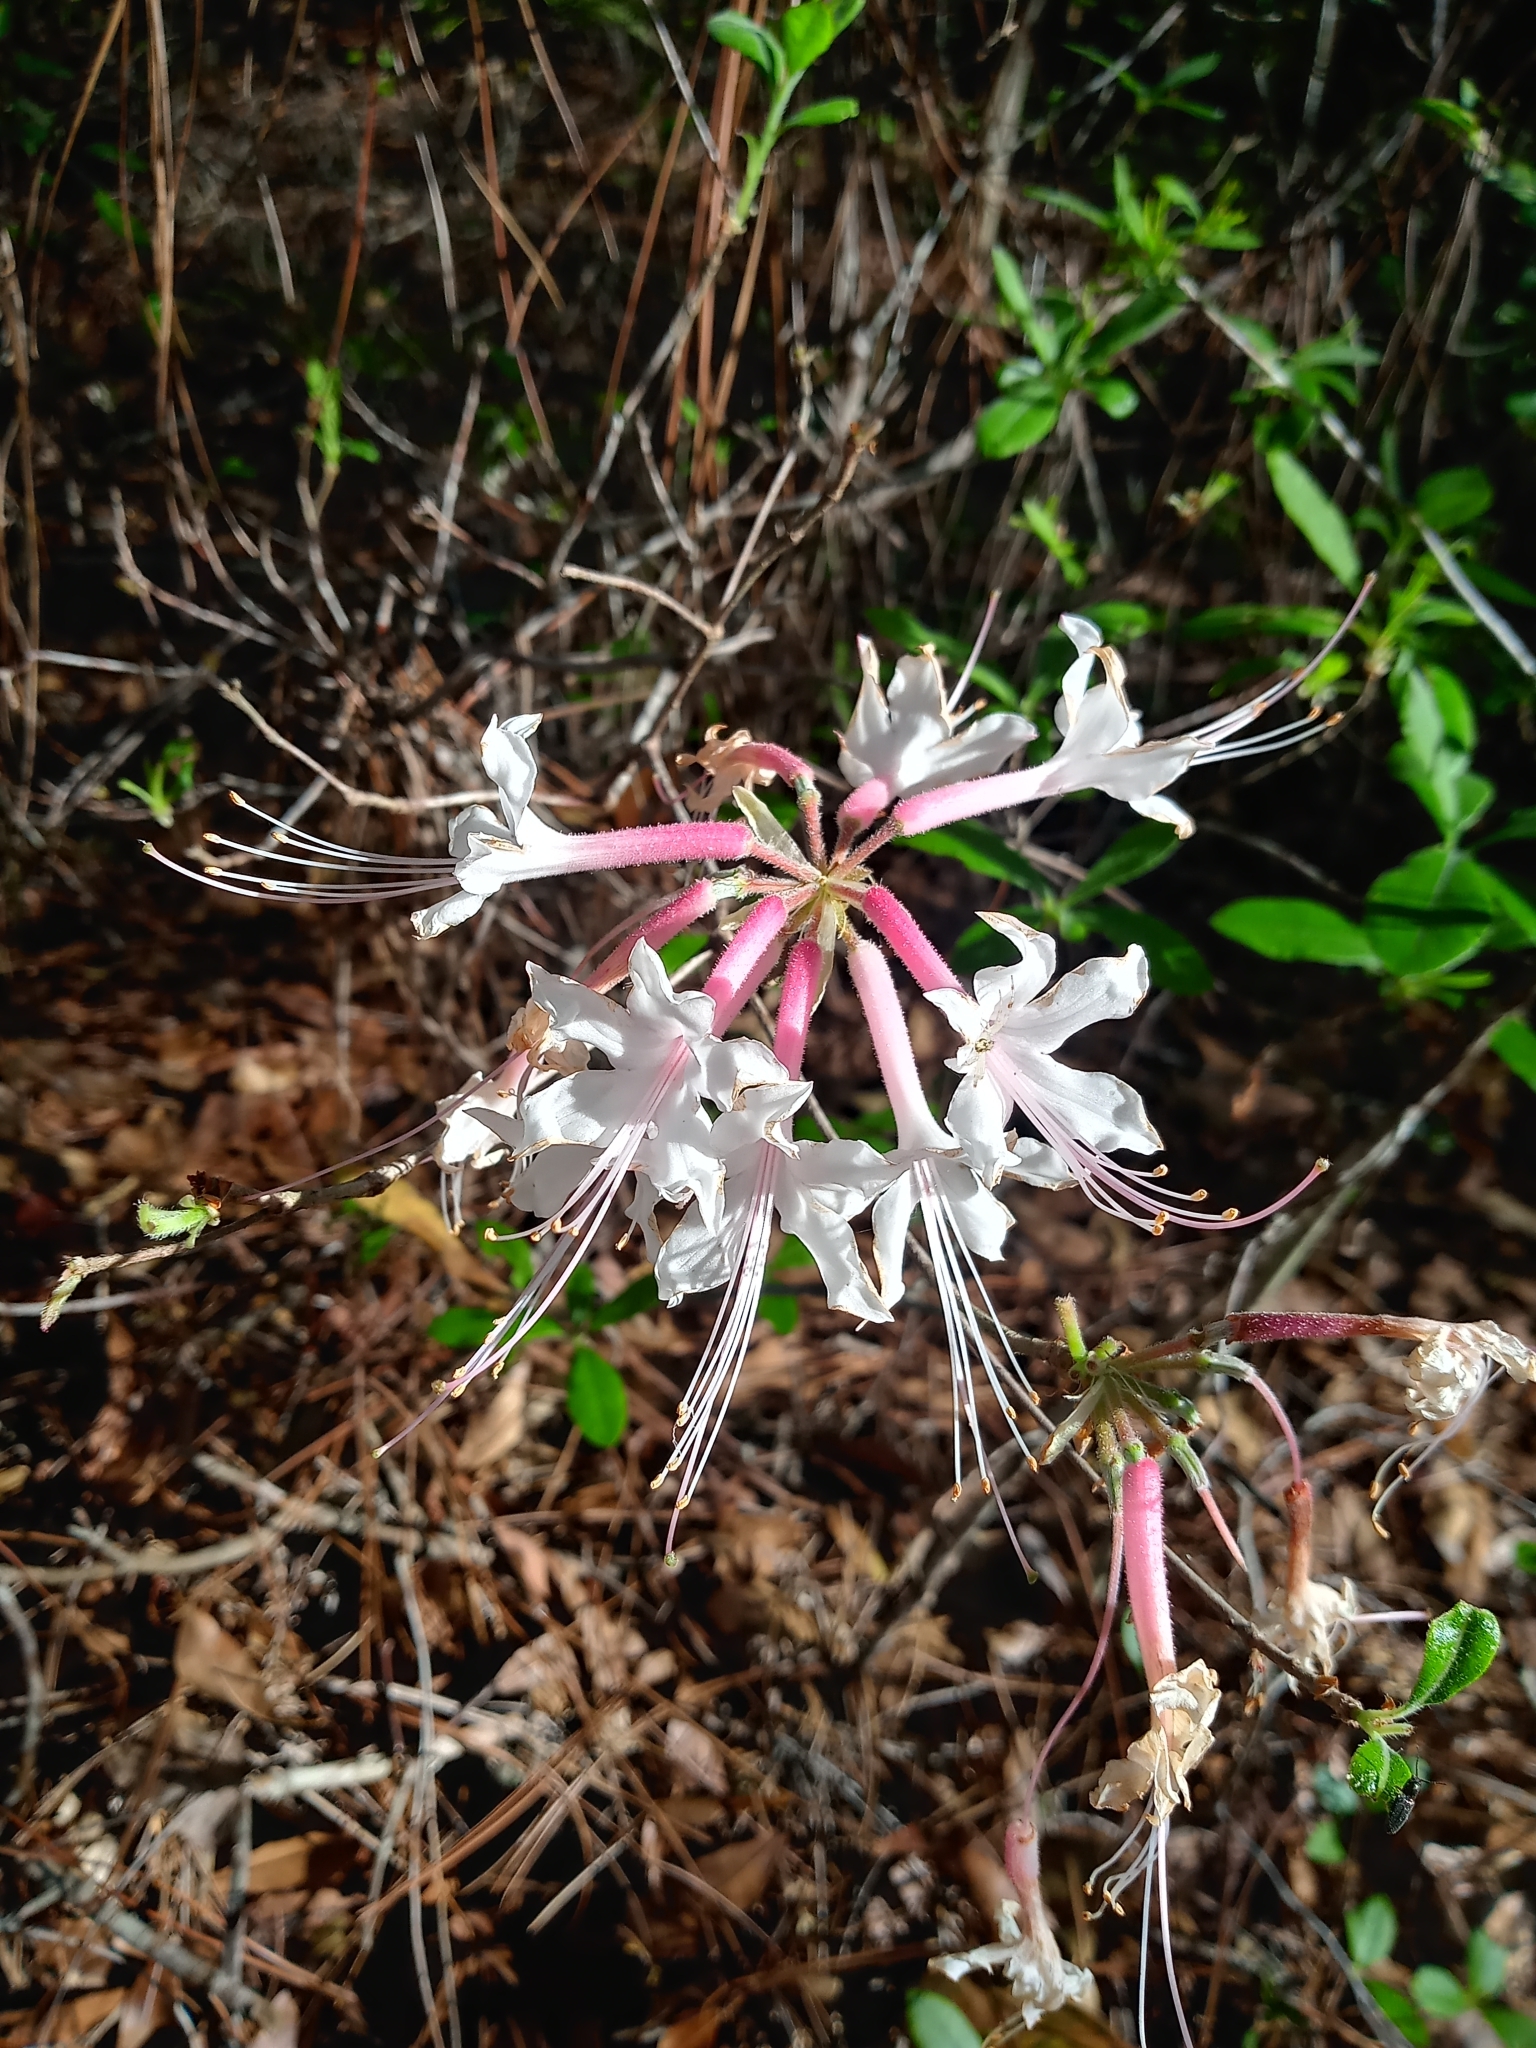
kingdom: Plantae
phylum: Tracheophyta
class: Magnoliopsida
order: Ericales
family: Ericaceae
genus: Rhododendron
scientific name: Rhododendron canescens
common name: Mountain azalea
